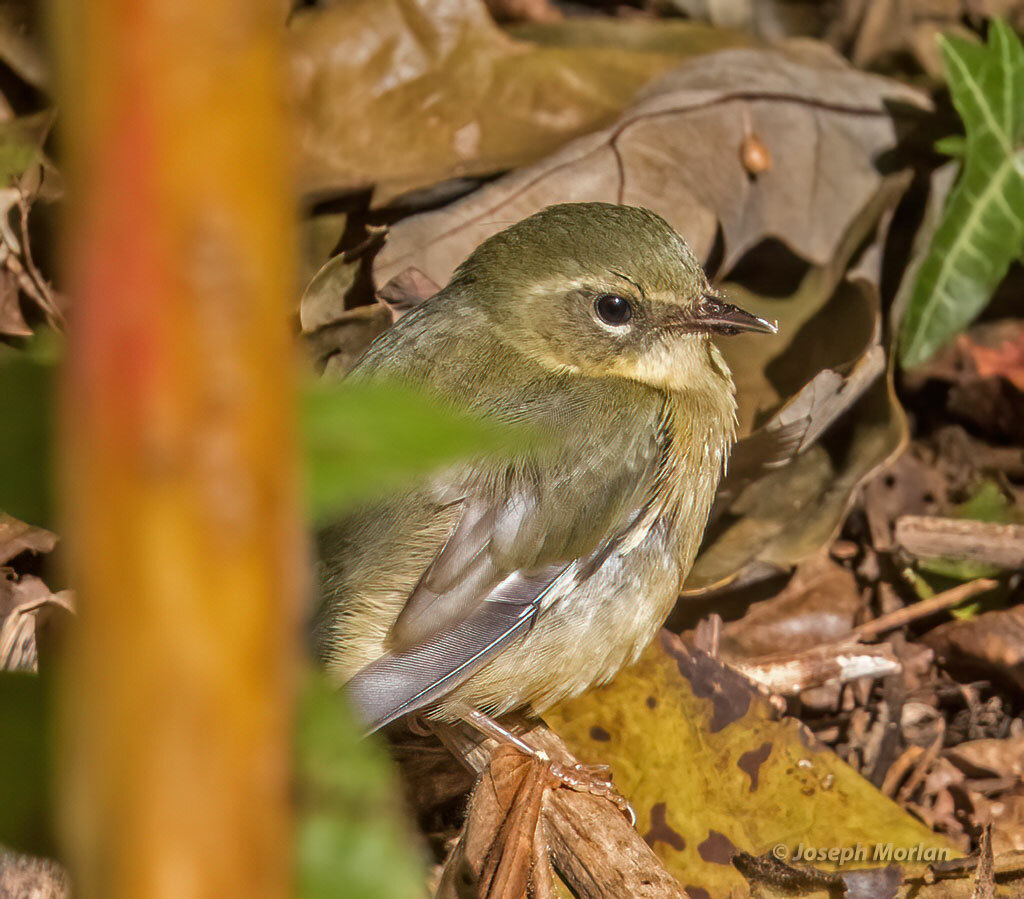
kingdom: Animalia
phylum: Chordata
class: Aves
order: Passeriformes
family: Parulidae
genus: Setophaga
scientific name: Setophaga caerulescens
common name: Black-throated blue warbler
